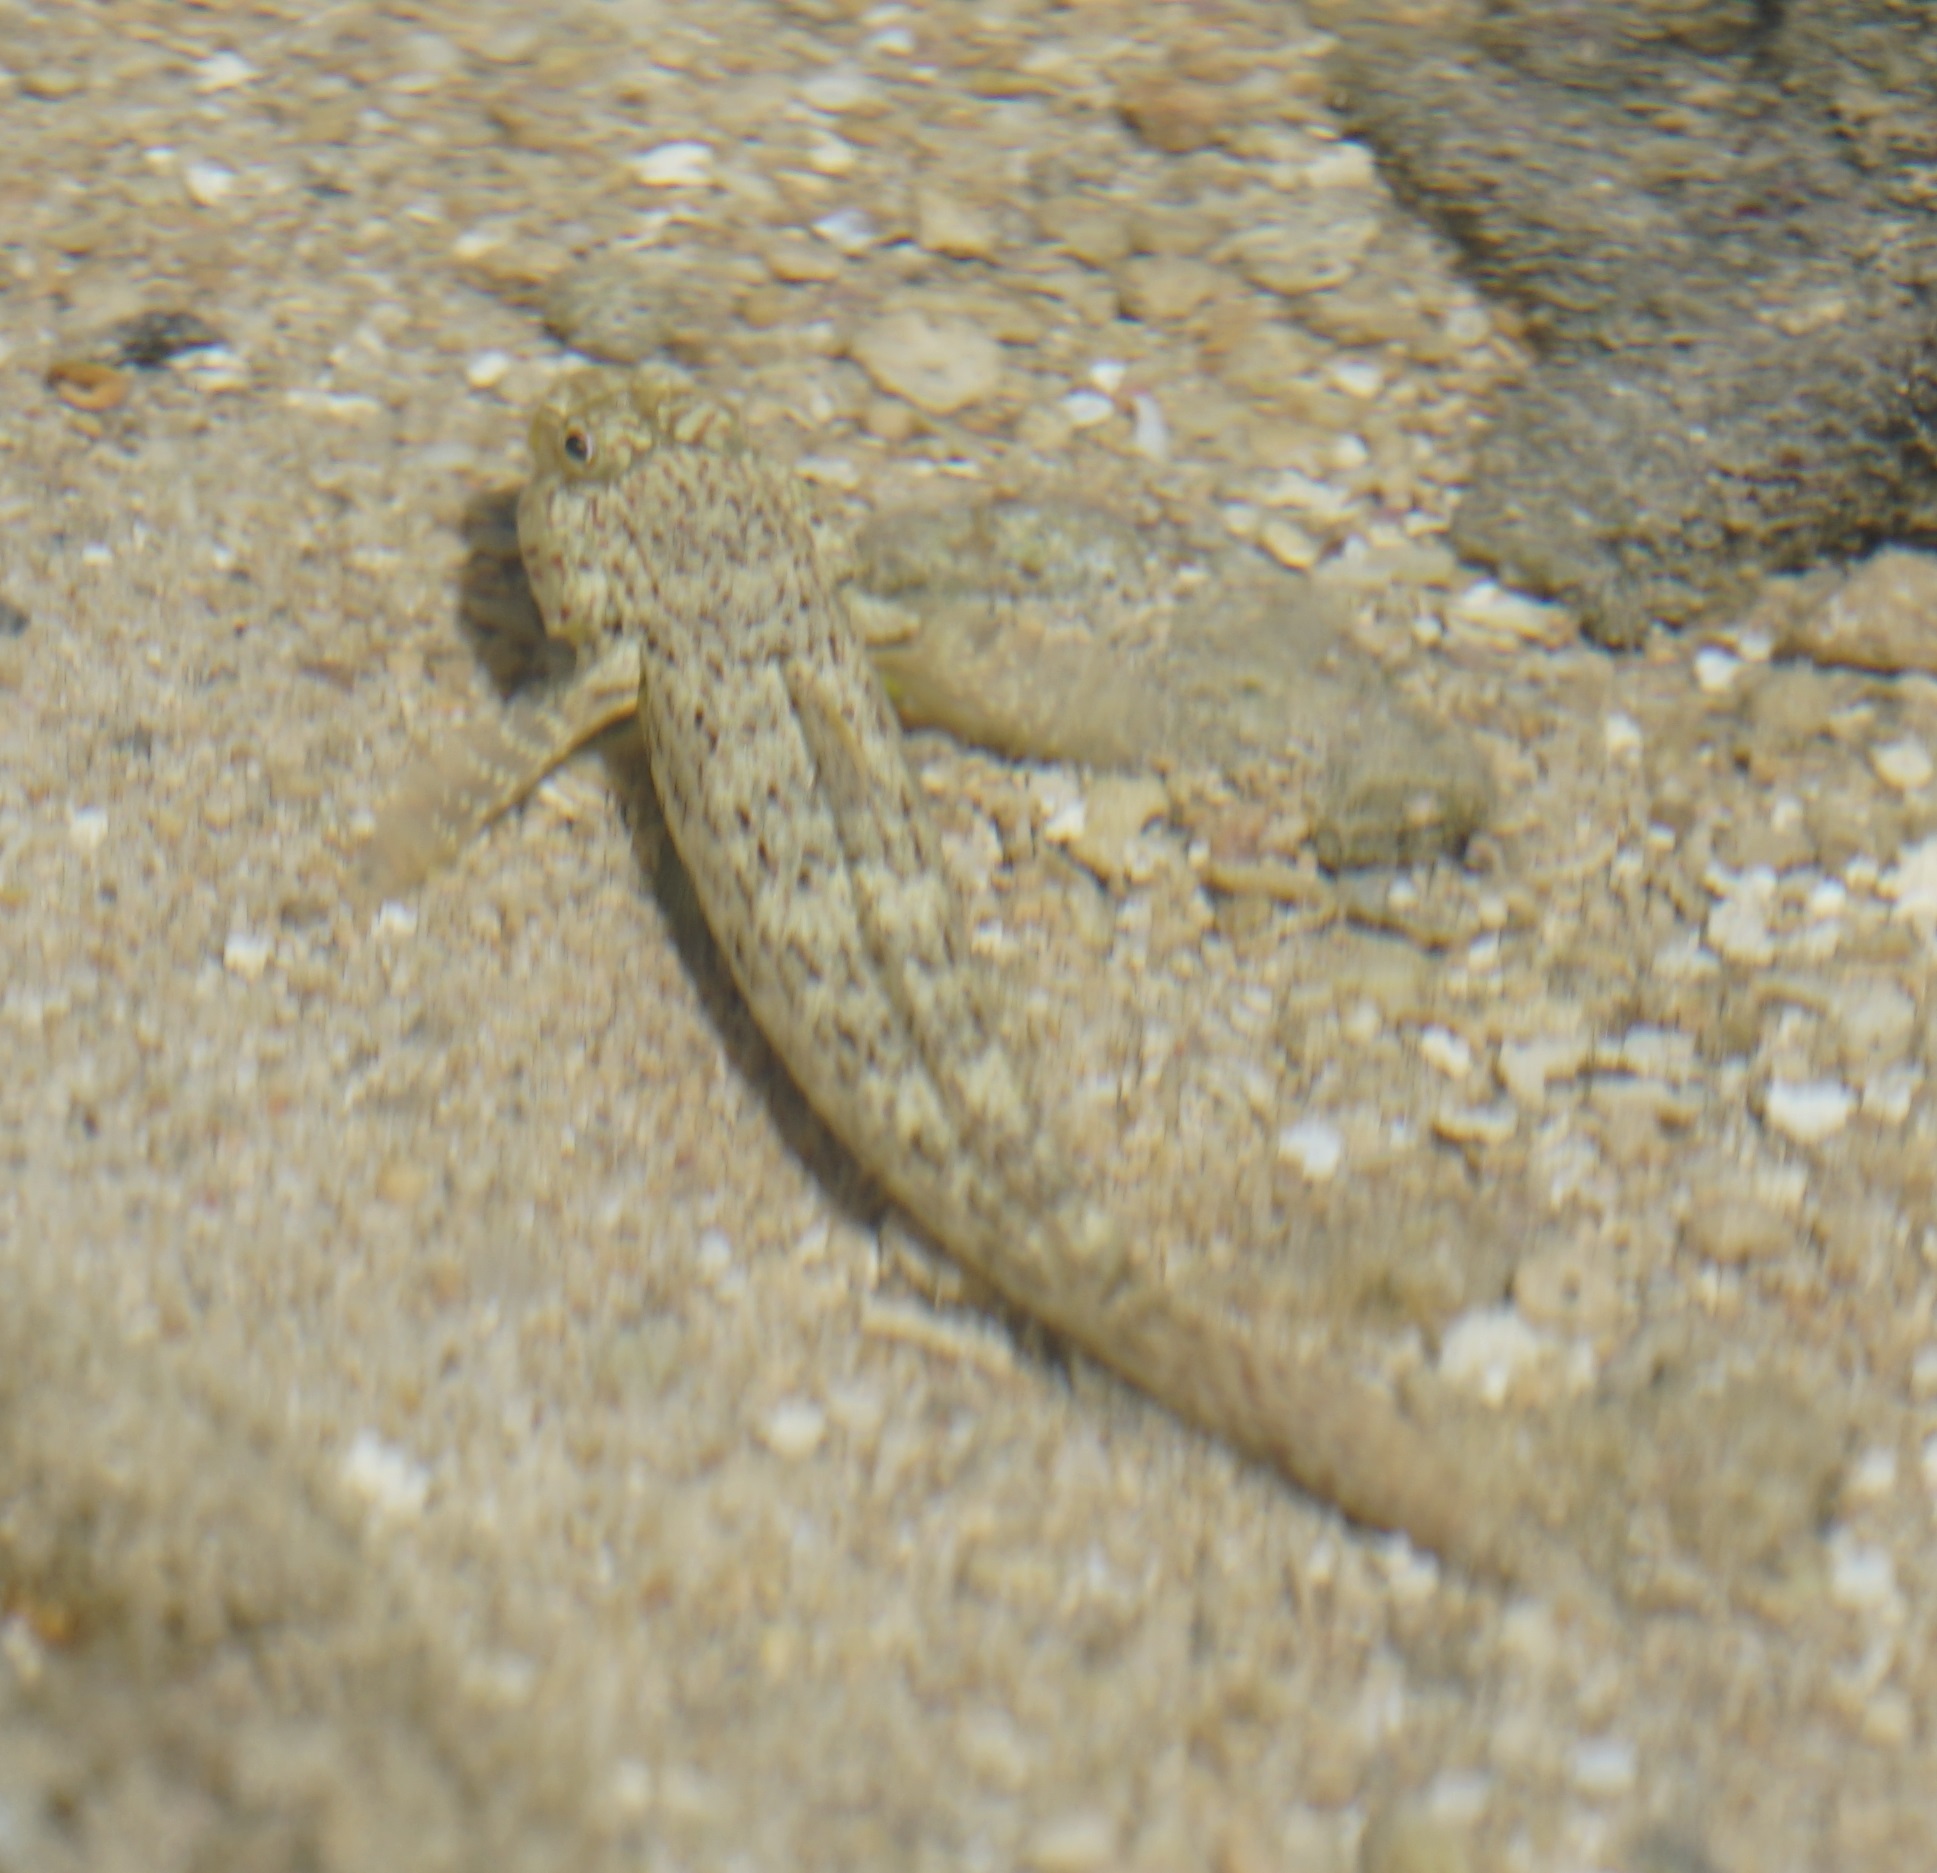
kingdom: Animalia
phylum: Chordata
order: Perciformes
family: Gobiidae
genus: Istigobius
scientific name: Istigobius ornatus
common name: Ornate goby
